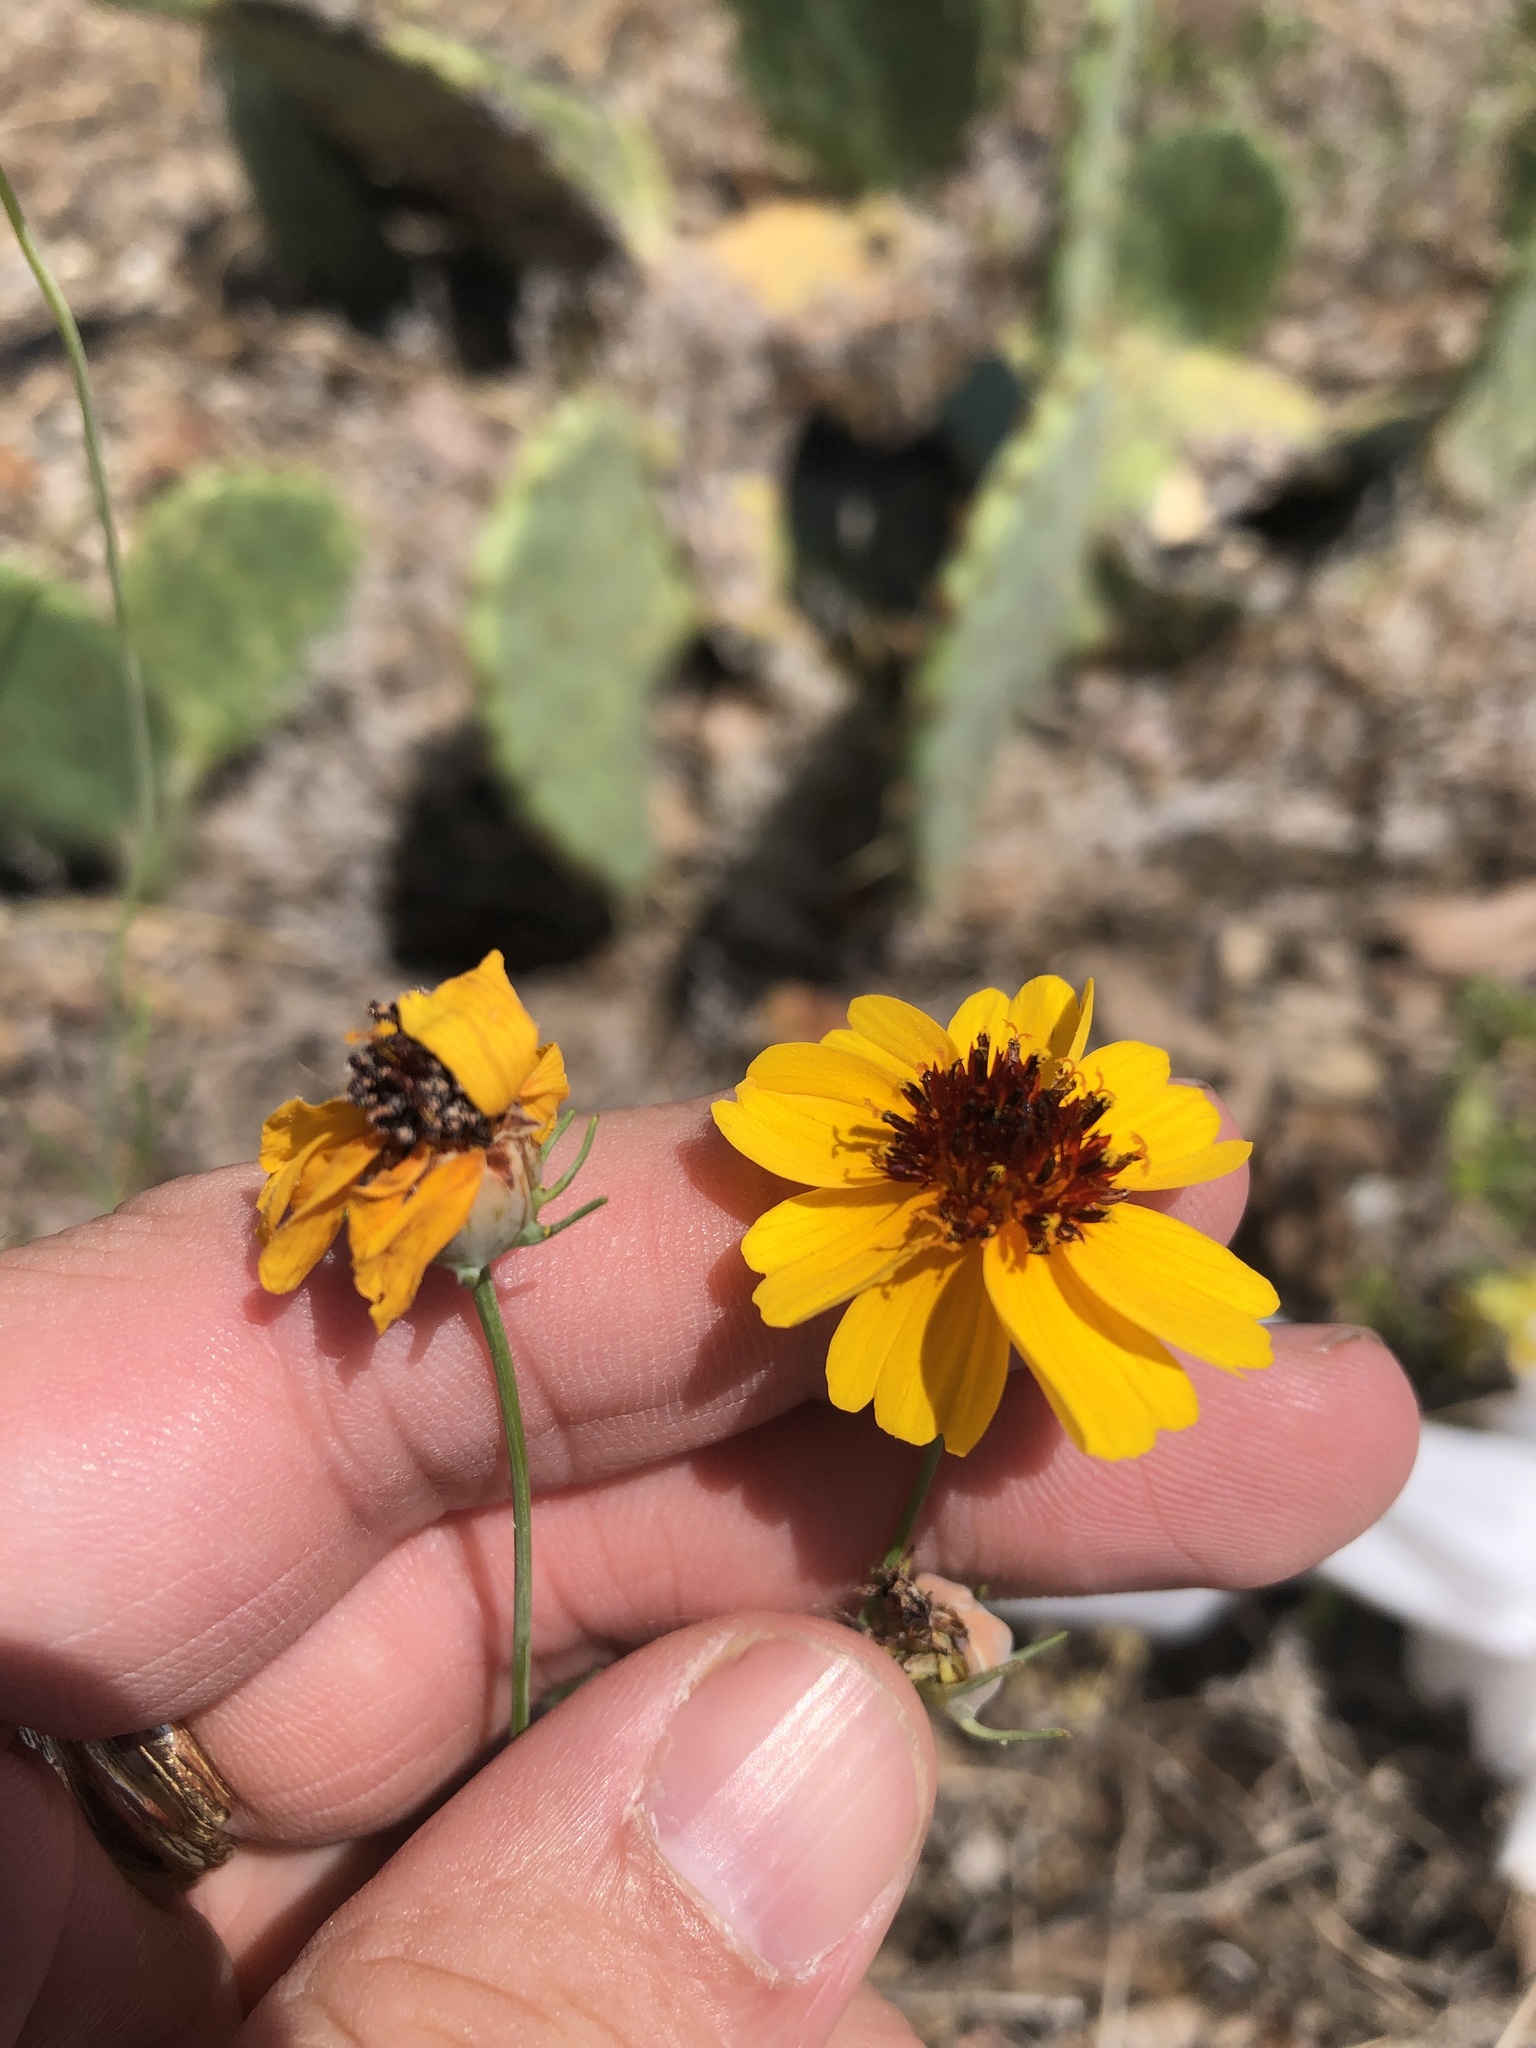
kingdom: Plantae
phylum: Tracheophyta
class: Magnoliopsida
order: Asterales
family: Asteraceae
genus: Thelesperma
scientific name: Thelesperma filifolium
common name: Stiff greenthread
